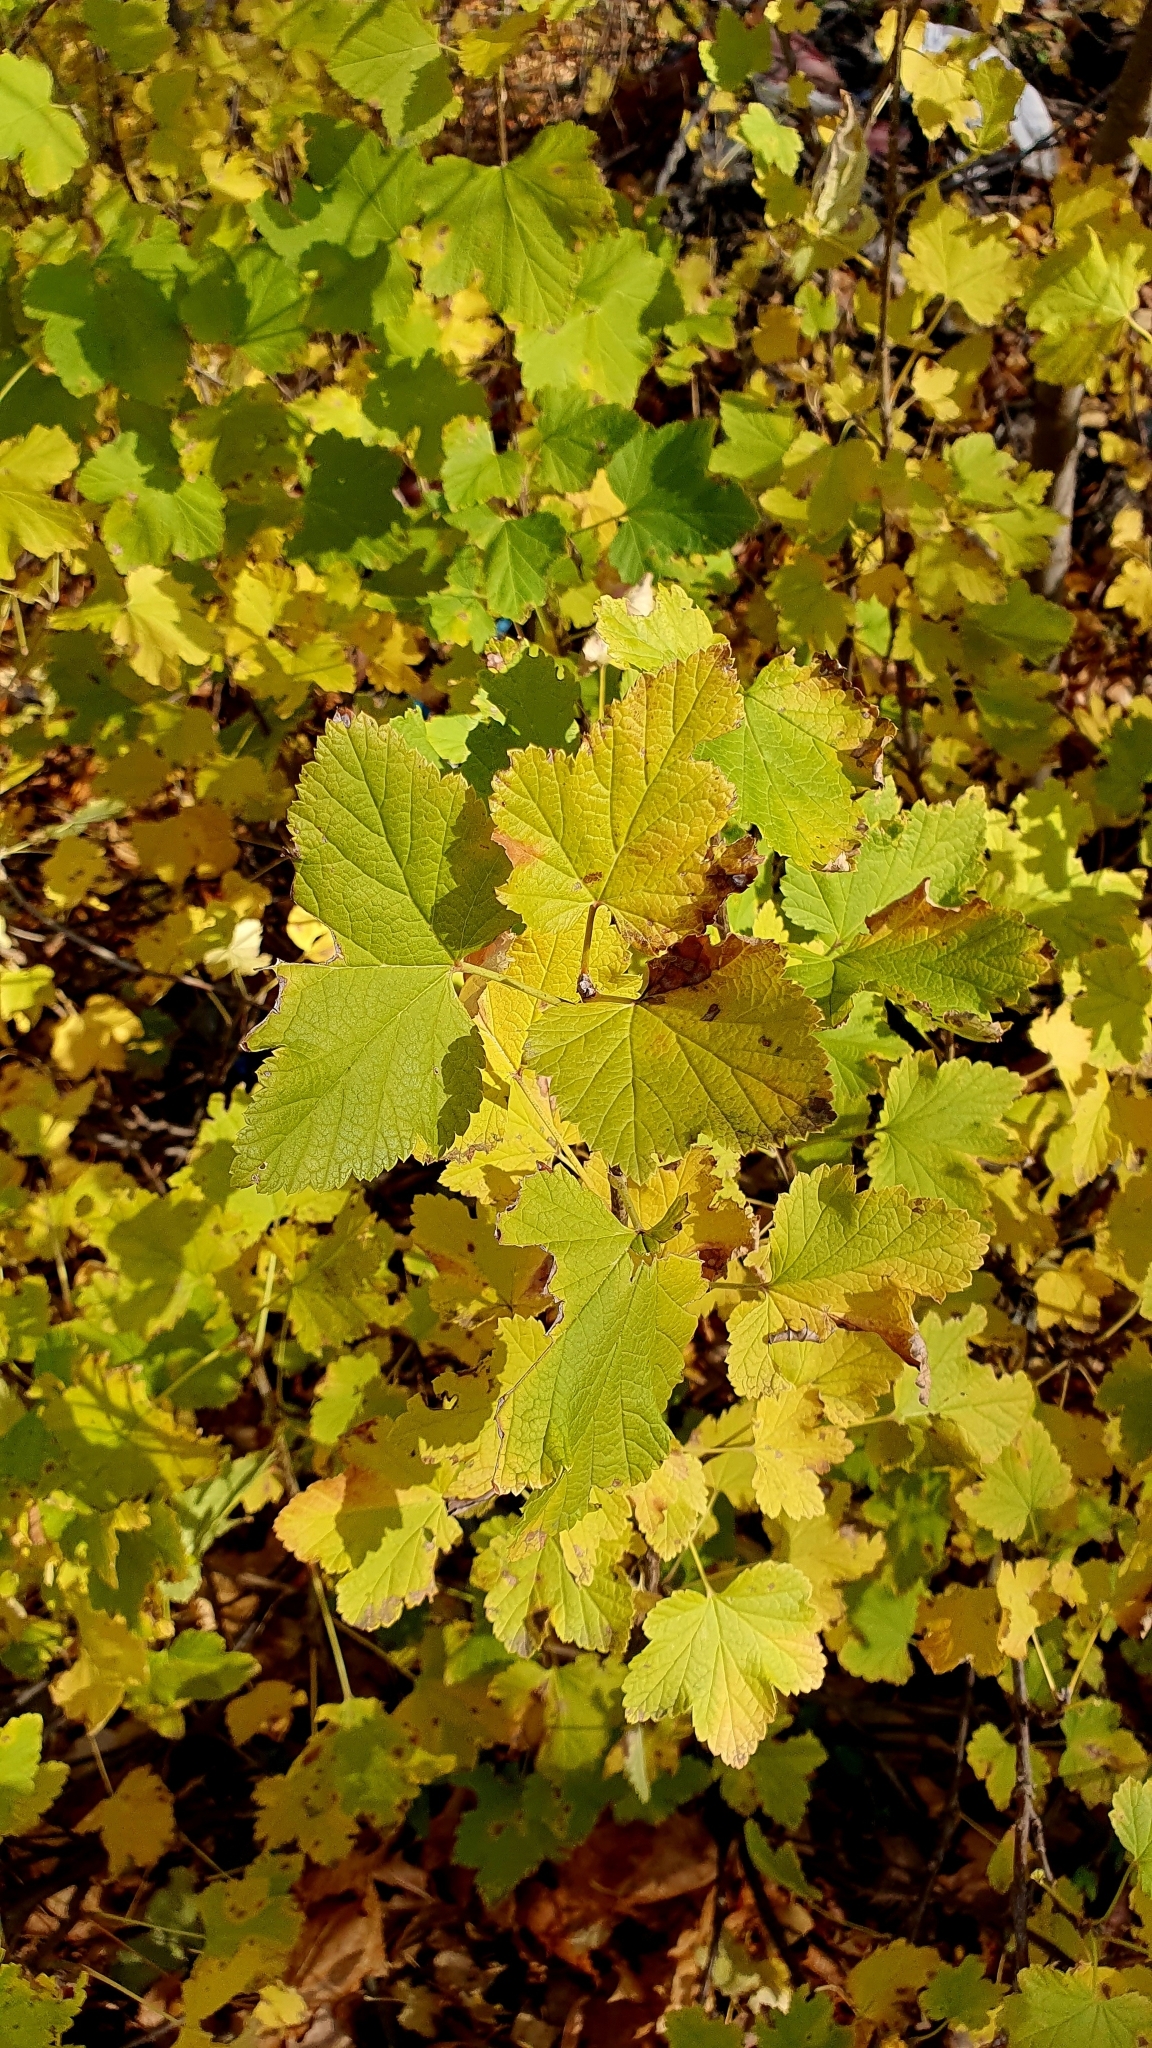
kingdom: Plantae
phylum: Tracheophyta
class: Magnoliopsida
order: Saxifragales
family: Grossulariaceae
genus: Ribes
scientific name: Ribes nigrum
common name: Black currant
